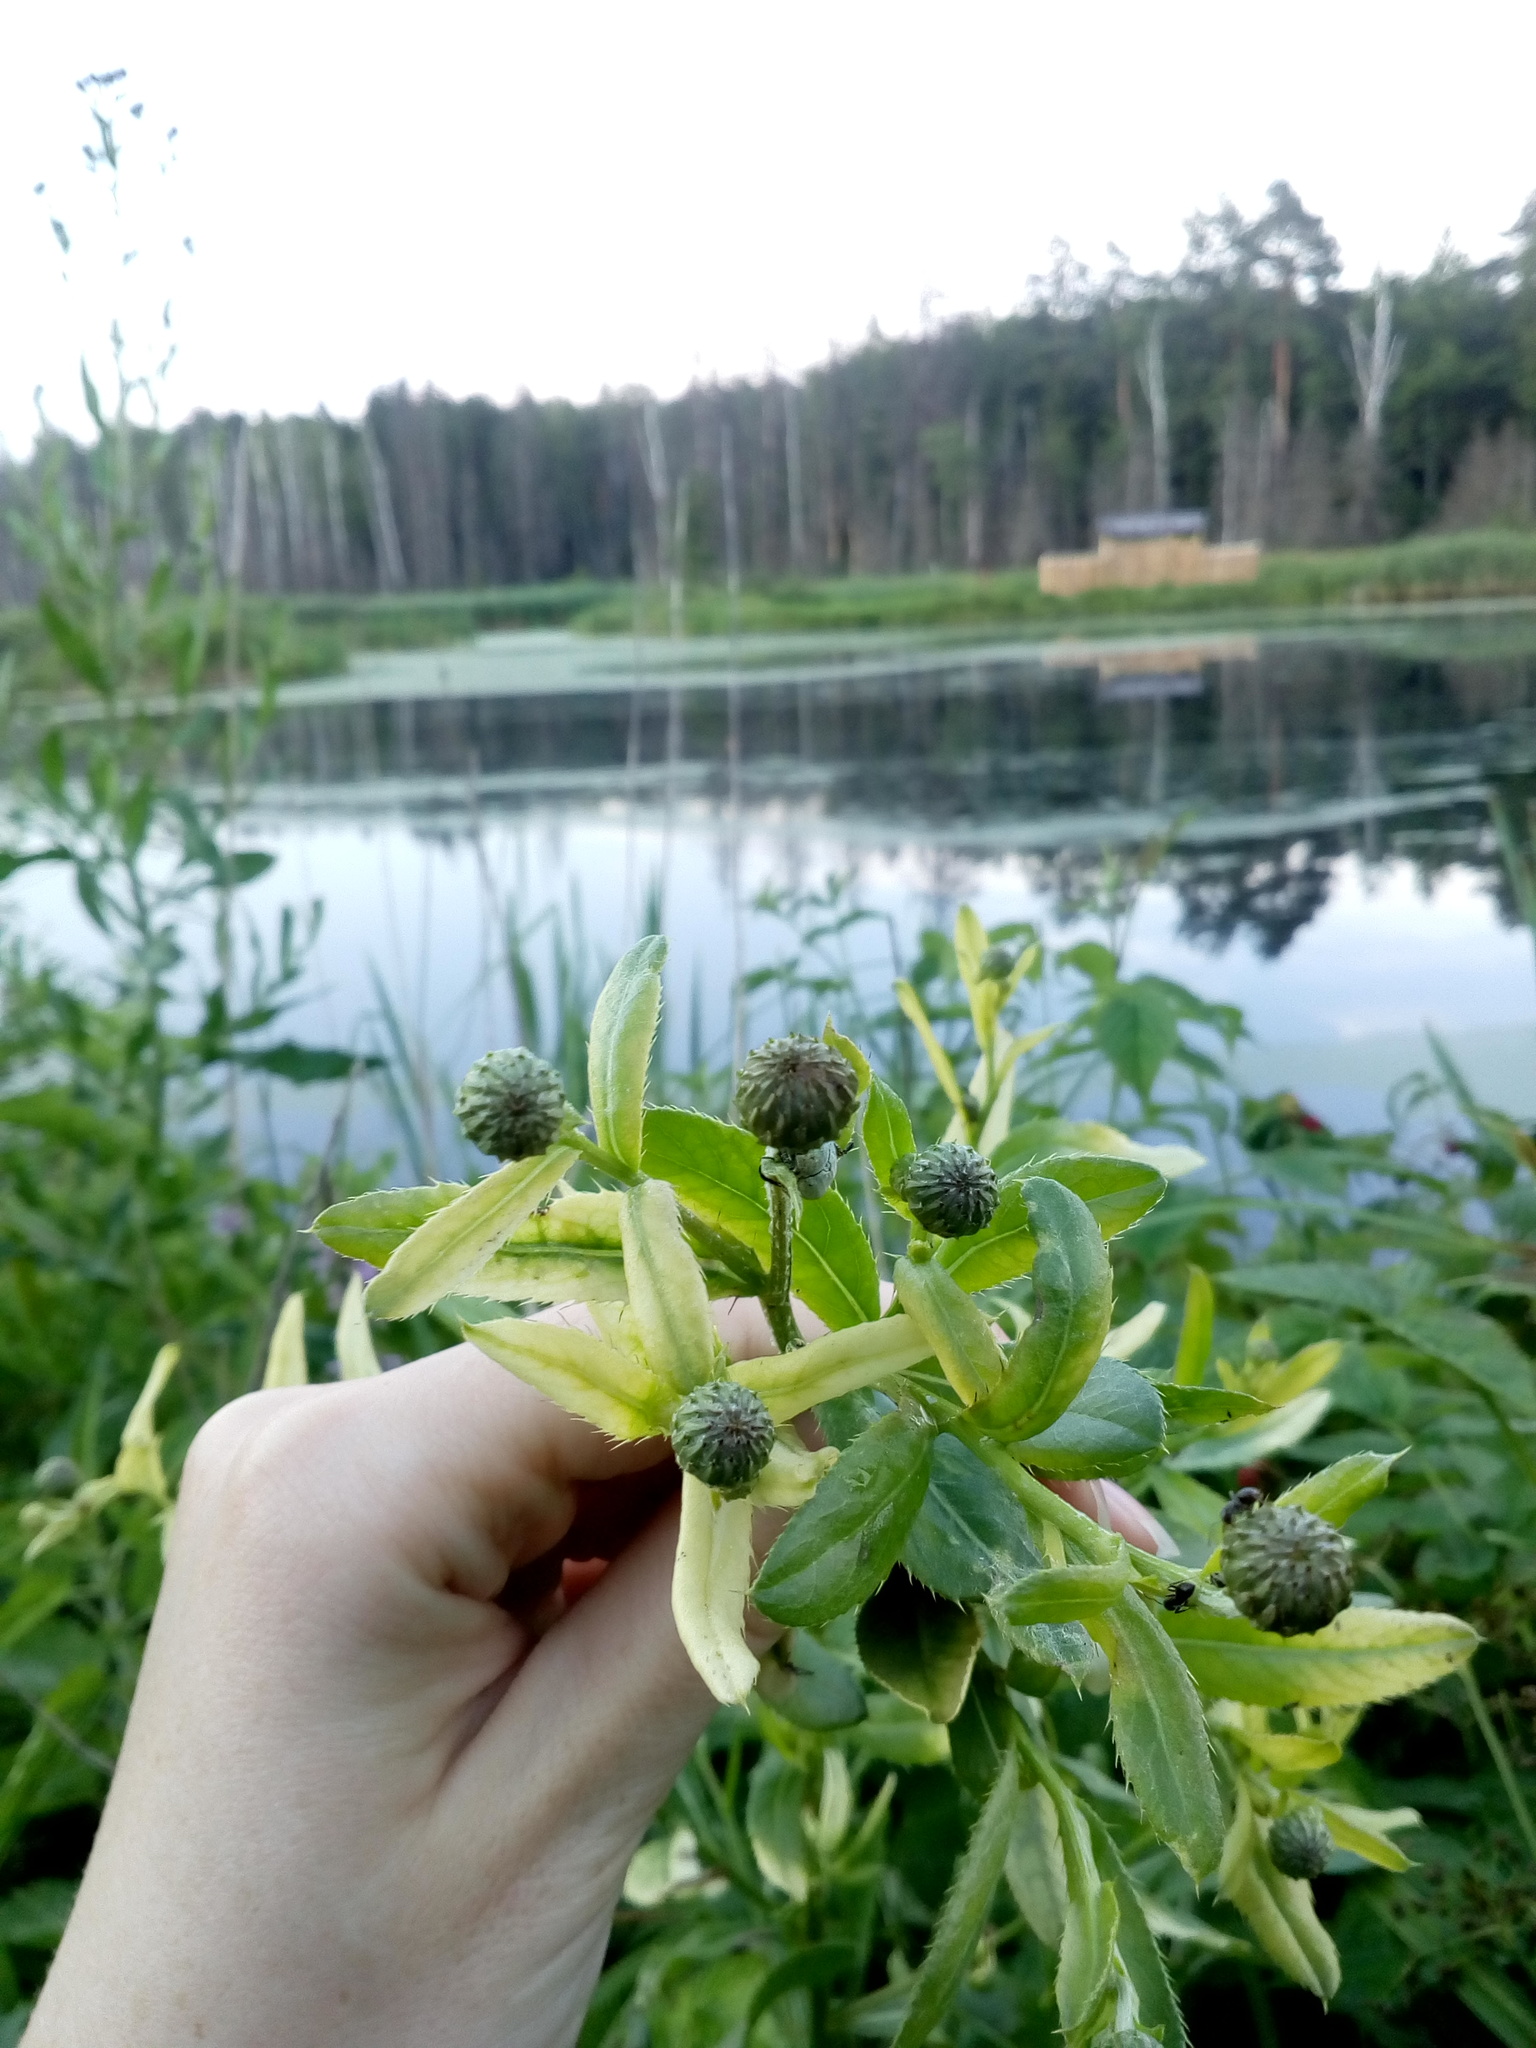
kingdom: Plantae
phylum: Tracheophyta
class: Magnoliopsida
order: Asterales
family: Asteraceae
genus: Cirsium
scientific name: Cirsium arvense
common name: Creeping thistle
